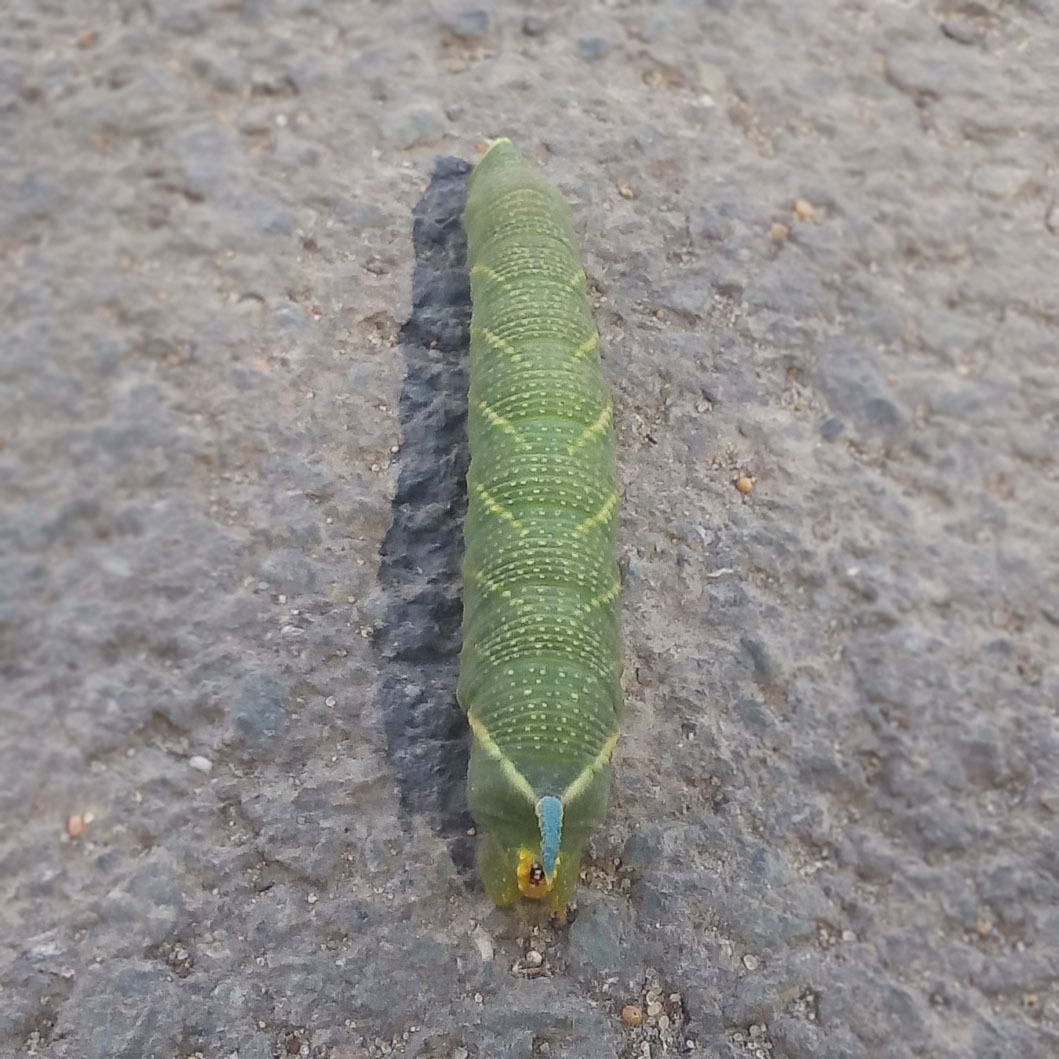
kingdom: Animalia
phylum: Arthropoda
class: Insecta
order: Lepidoptera
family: Sphingidae
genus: Mimas
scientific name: Mimas tiliae
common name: Lime hawk-moth
